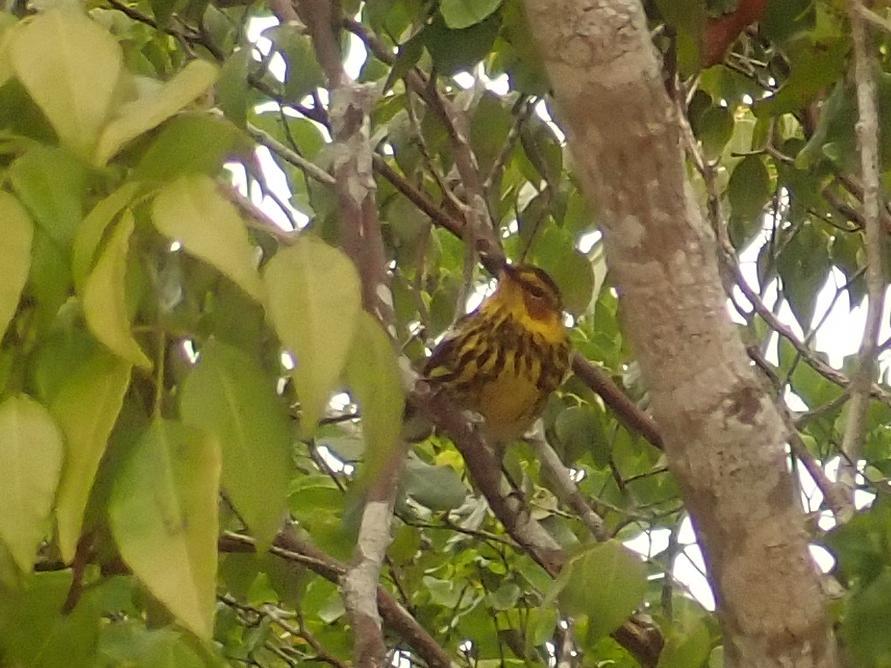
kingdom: Animalia
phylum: Chordata
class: Aves
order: Passeriformes
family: Parulidae
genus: Setophaga
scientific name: Setophaga tigrina
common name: Cape may warbler
